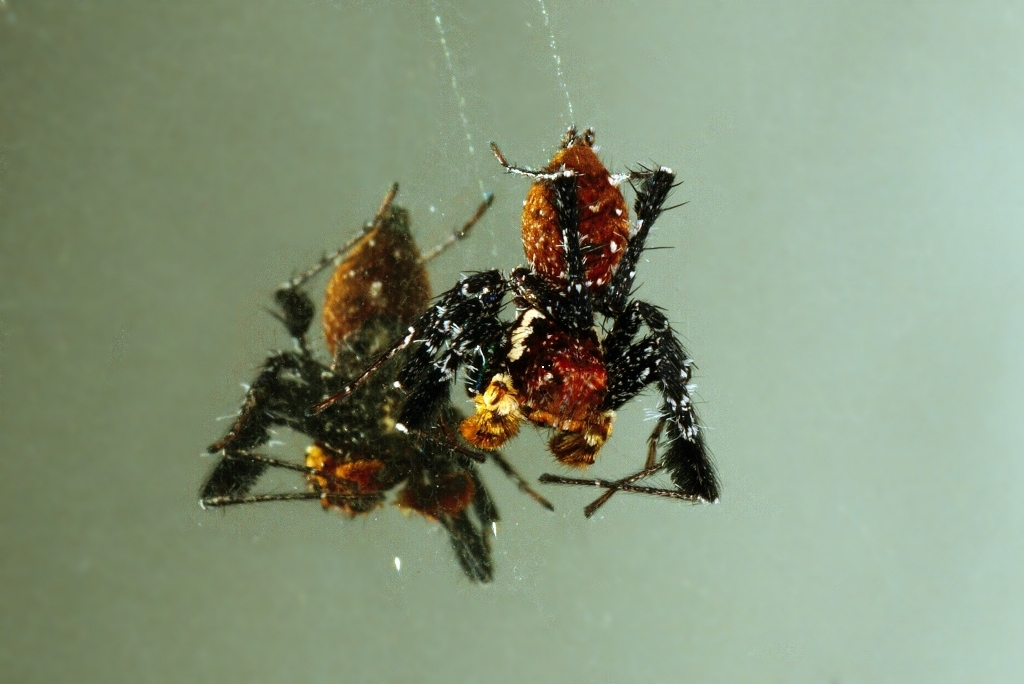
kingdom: Animalia
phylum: Arthropoda
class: Arachnida
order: Araneae
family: Salticidae
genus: Portia
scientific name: Portia schultzi
